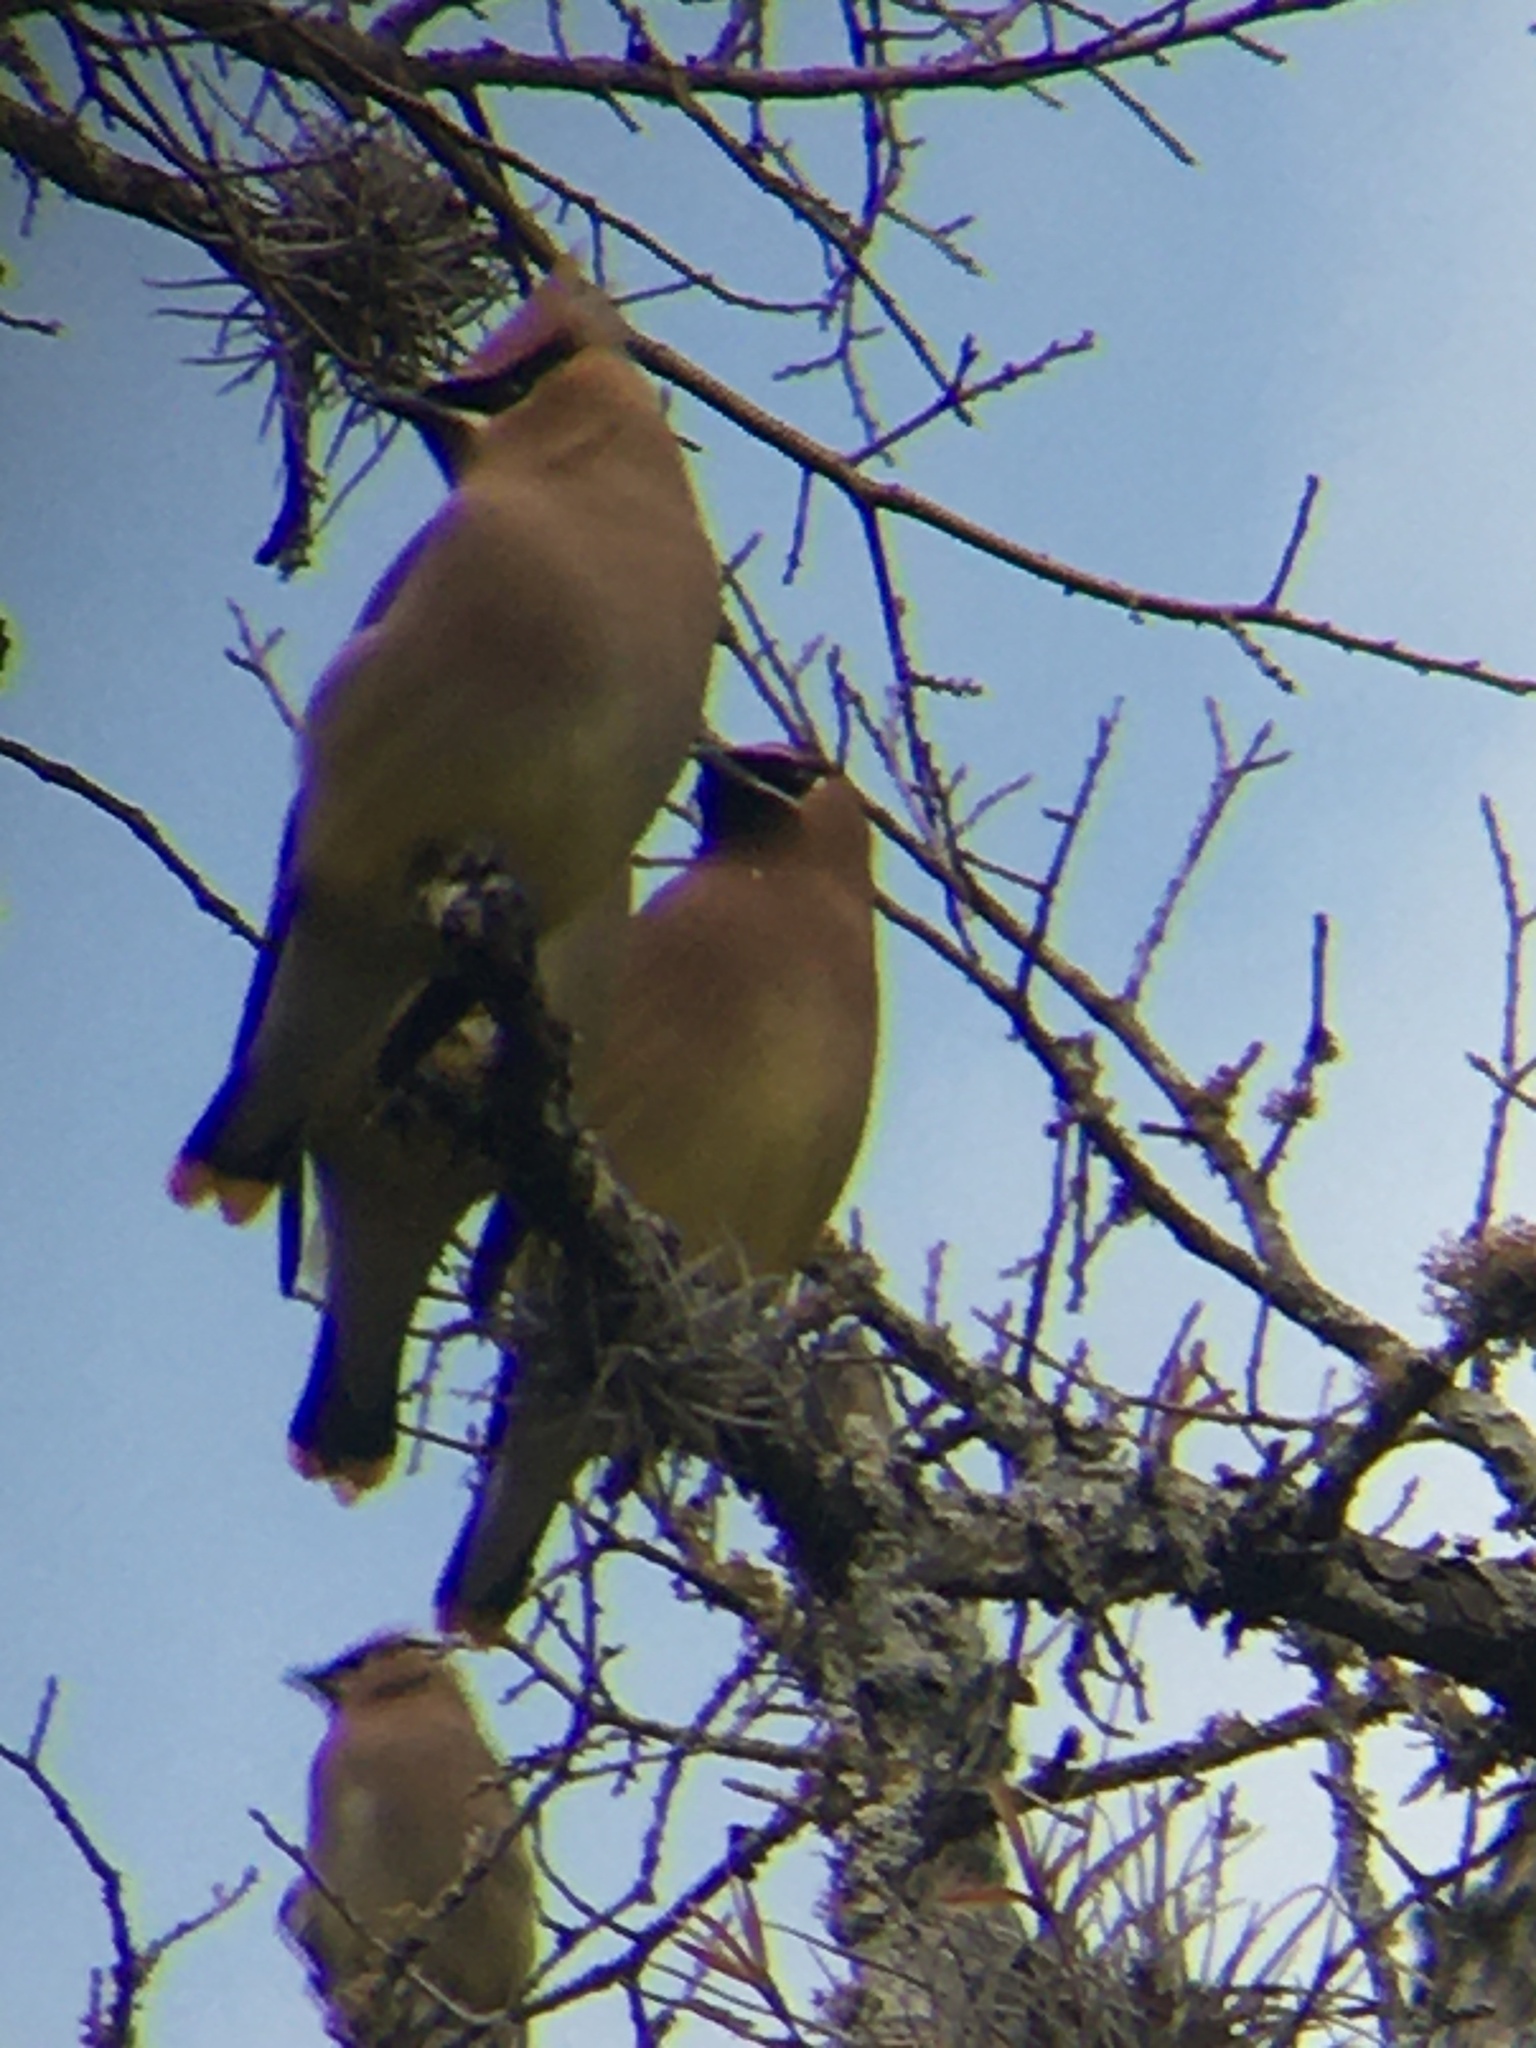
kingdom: Animalia
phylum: Chordata
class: Aves
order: Passeriformes
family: Bombycillidae
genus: Bombycilla
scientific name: Bombycilla cedrorum
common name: Cedar waxwing
